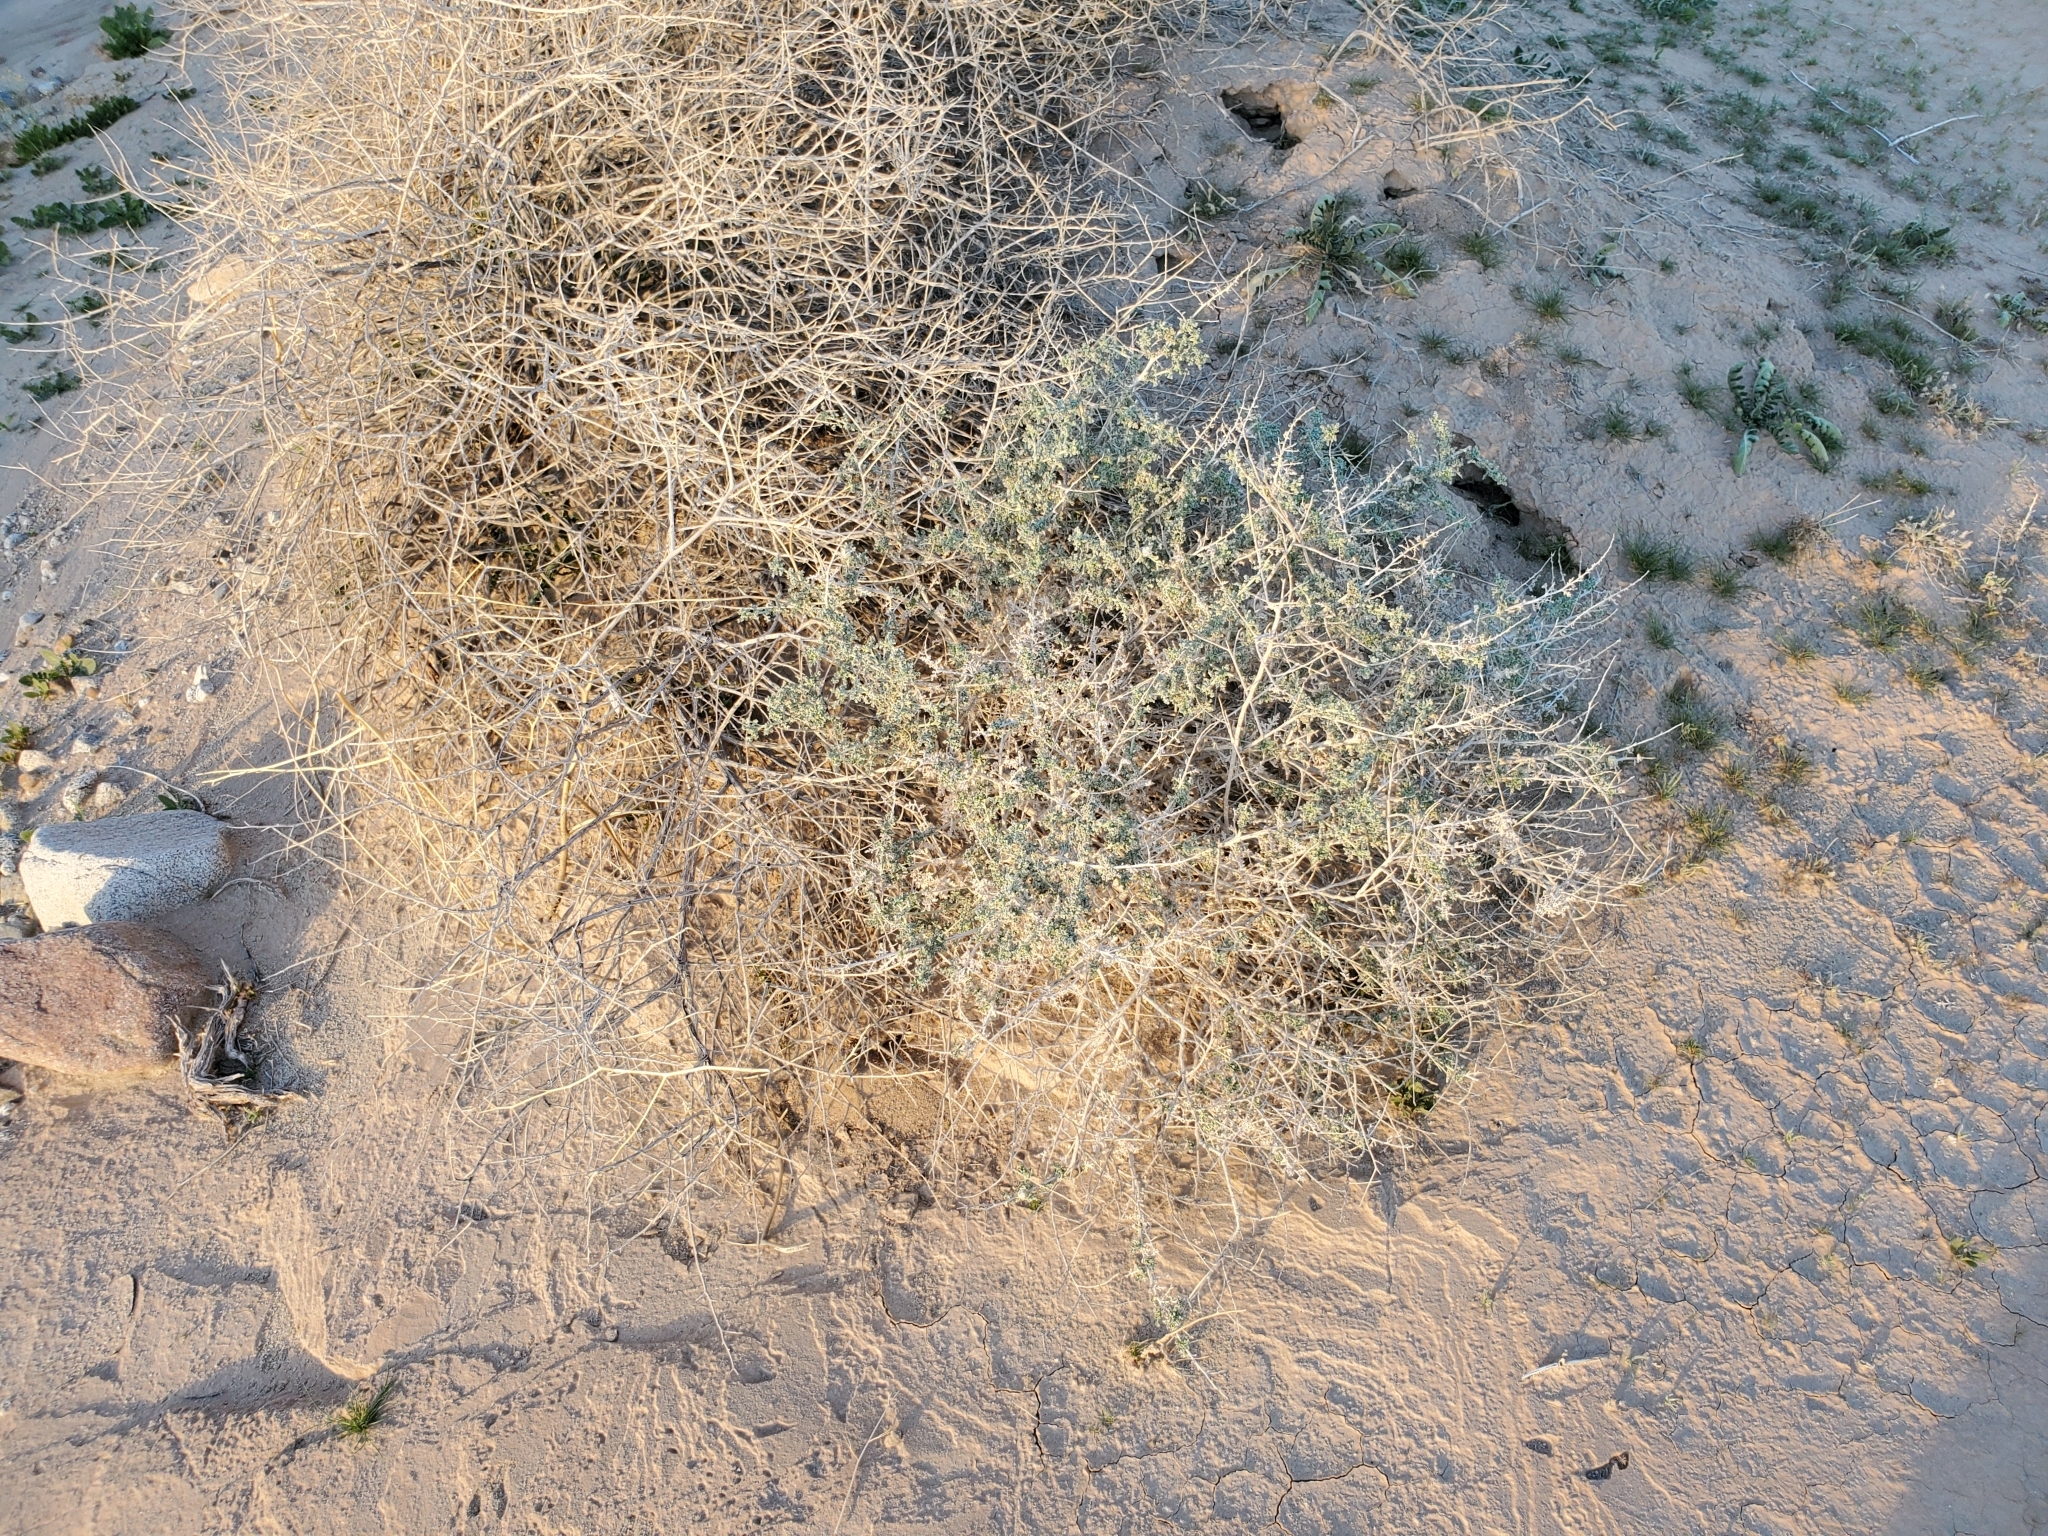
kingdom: Plantae
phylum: Tracheophyta
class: Magnoliopsida
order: Asterales
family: Asteraceae
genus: Ambrosia
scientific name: Ambrosia dumosa
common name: Bur-sage
